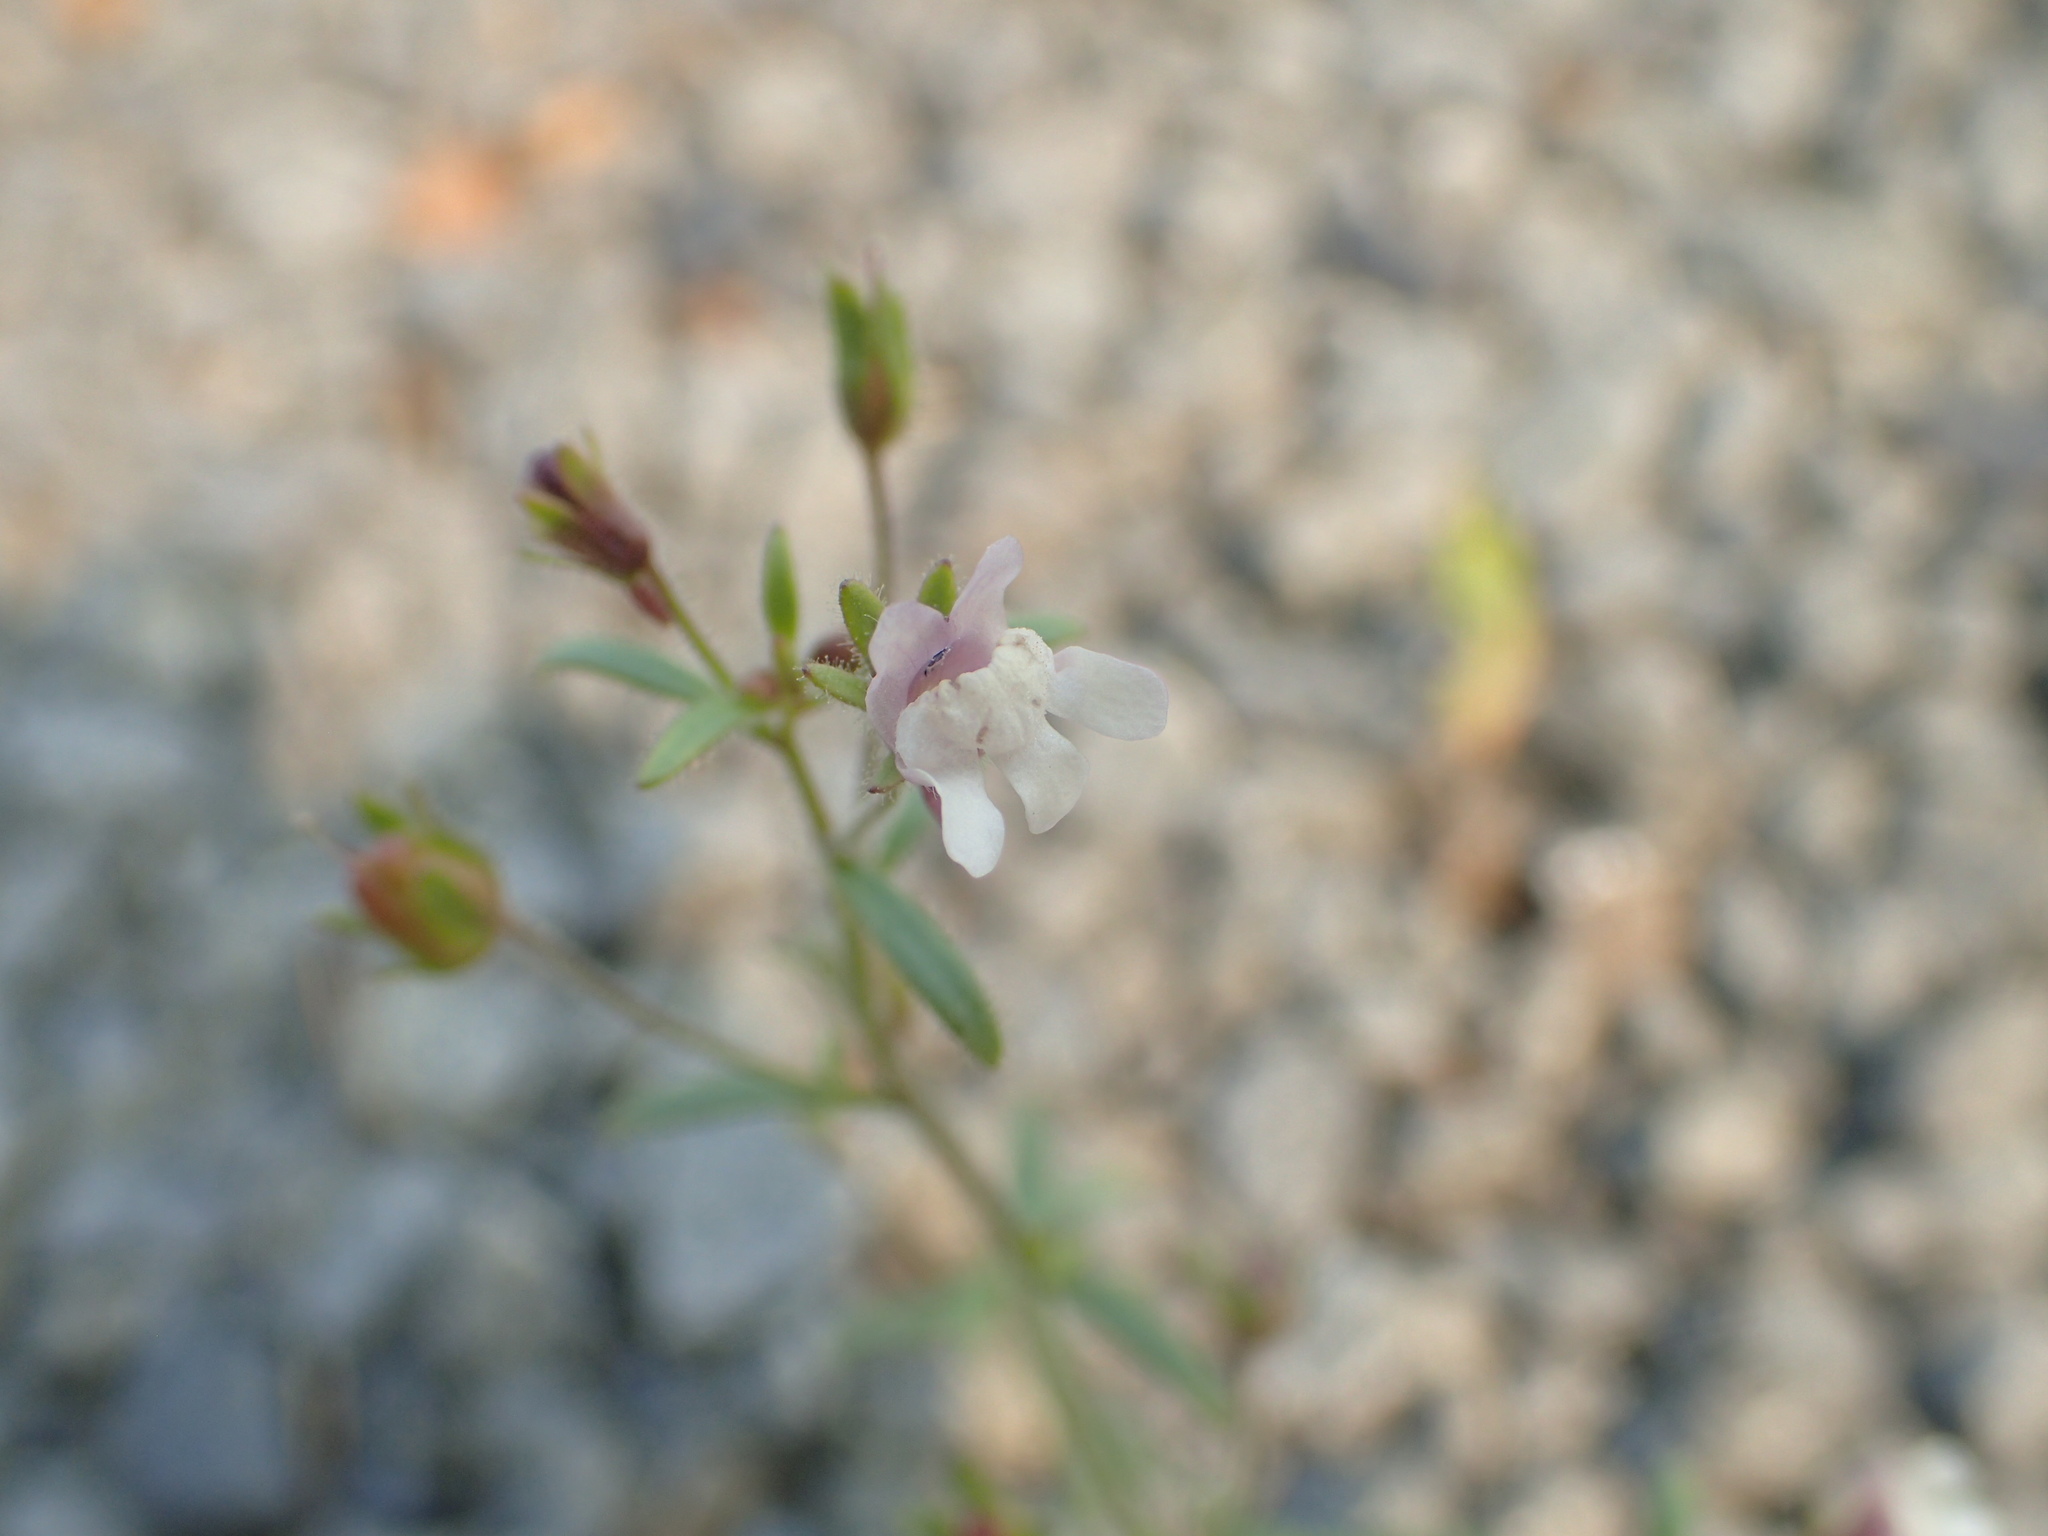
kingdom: Plantae
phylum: Tracheophyta
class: Magnoliopsida
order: Lamiales
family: Plantaginaceae
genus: Chaenorhinum
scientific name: Chaenorhinum minus
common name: Dwarf snapdragon
